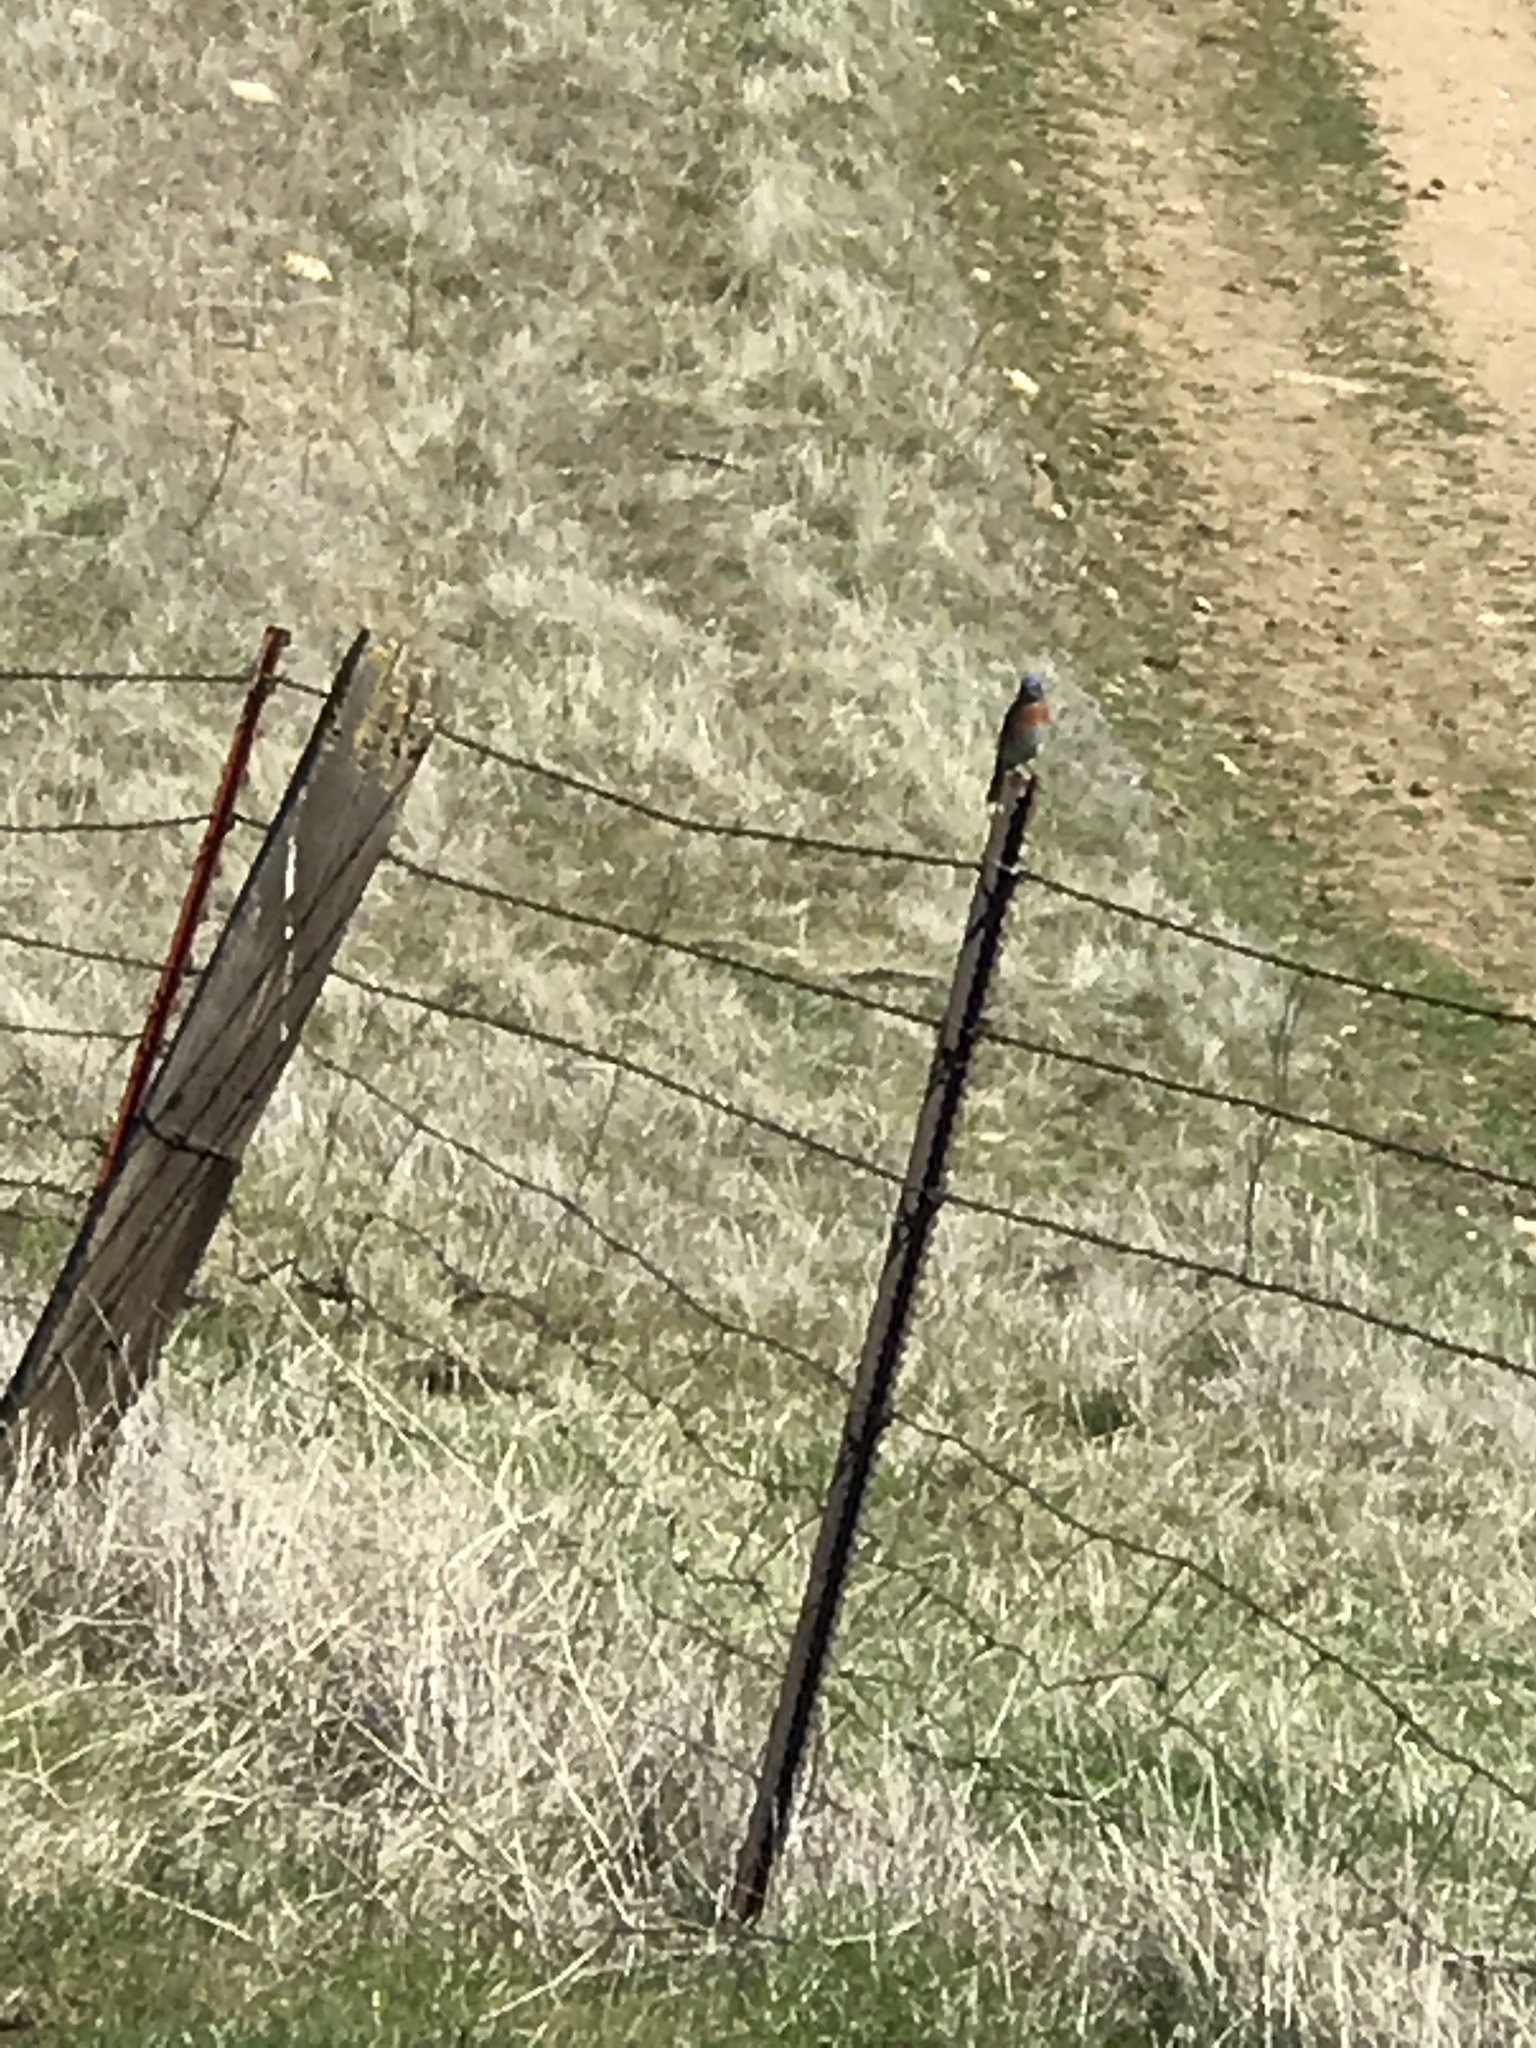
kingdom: Animalia
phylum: Chordata
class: Aves
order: Passeriformes
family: Turdidae
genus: Sialia
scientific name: Sialia mexicana
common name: Western bluebird
